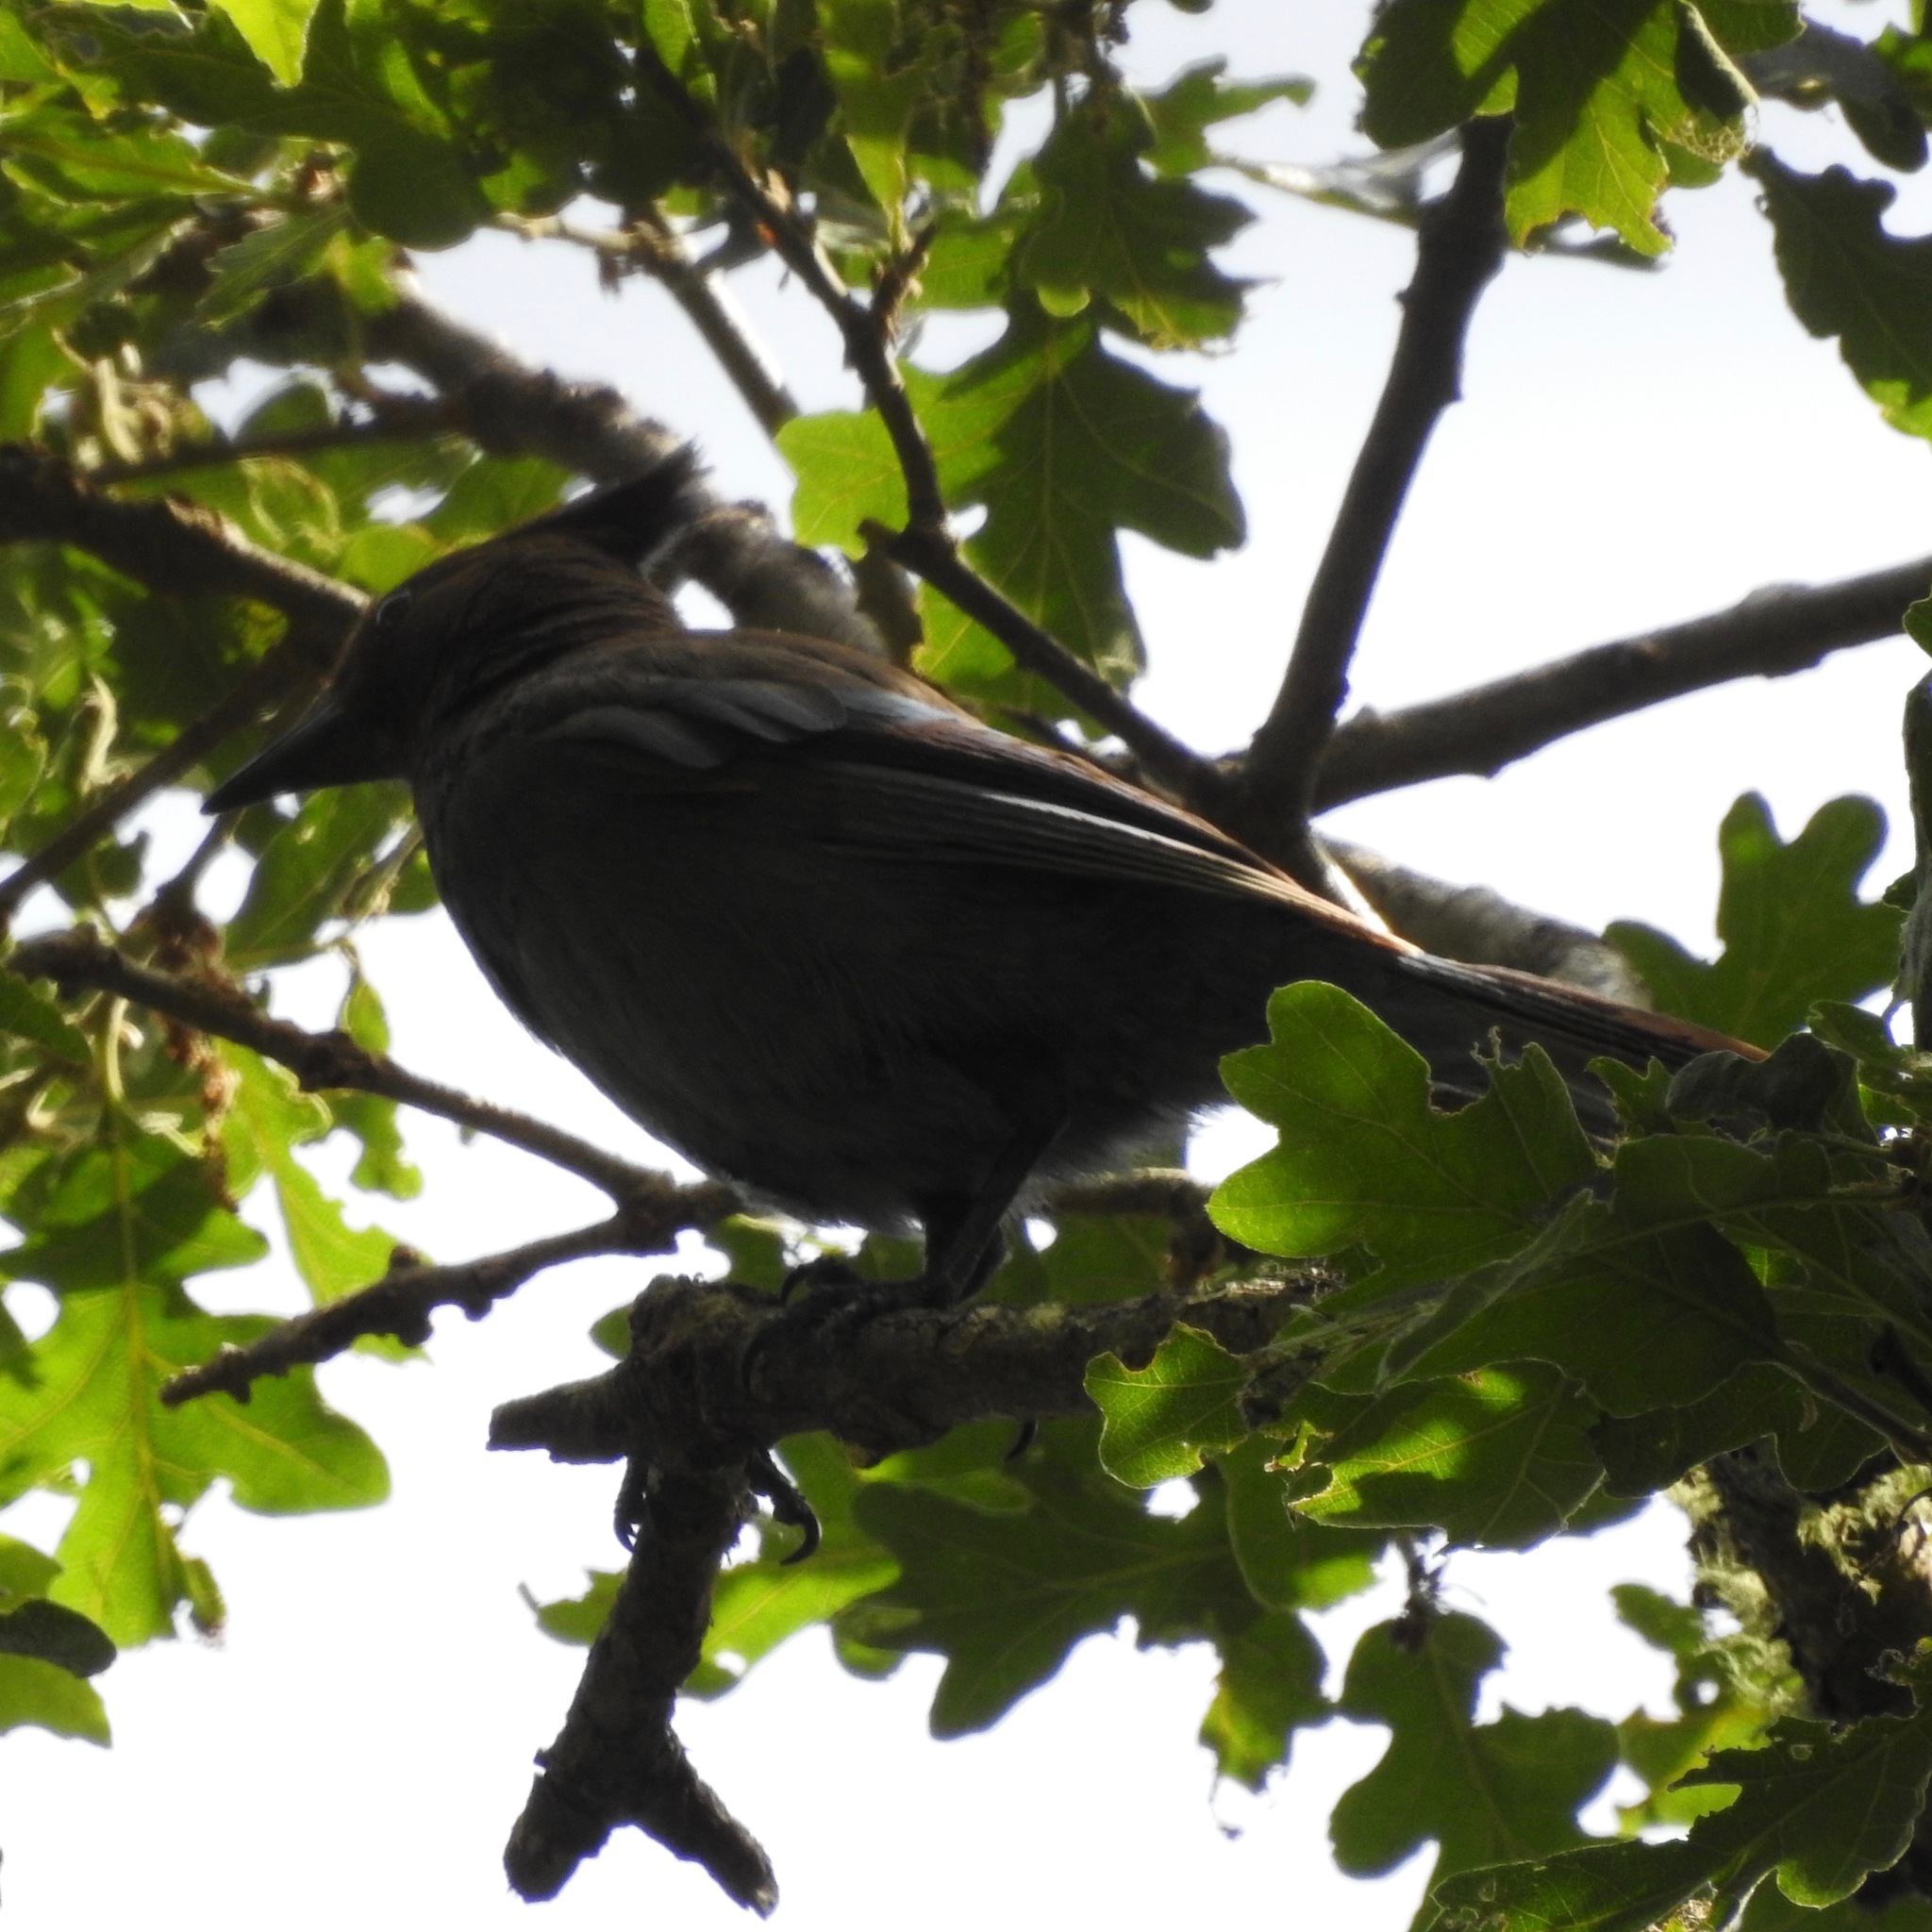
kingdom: Animalia
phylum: Chordata
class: Aves
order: Passeriformes
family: Corvidae
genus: Cyanocitta
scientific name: Cyanocitta stelleri
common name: Steller's jay
